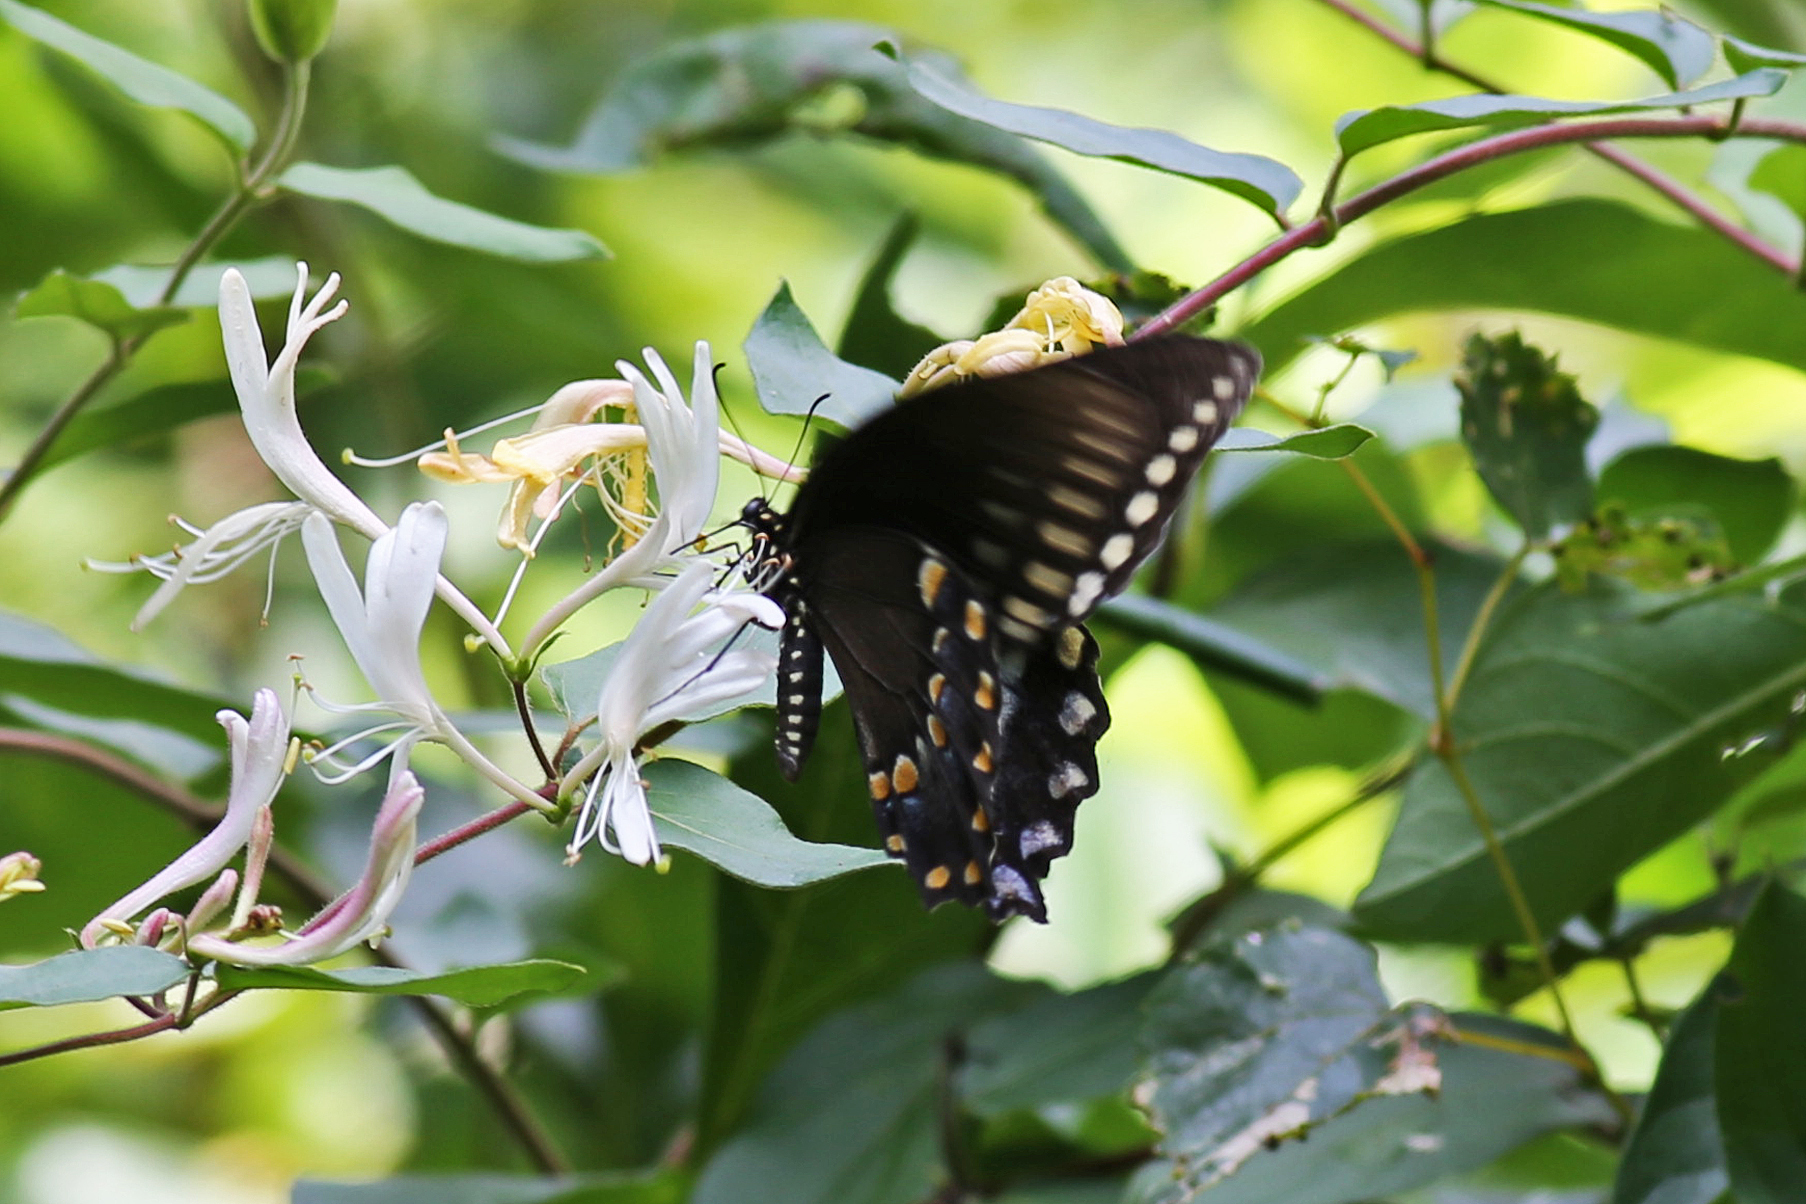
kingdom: Animalia
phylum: Arthropoda
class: Insecta
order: Lepidoptera
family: Papilionidae
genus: Papilio
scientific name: Papilio troilus
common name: Spicebush swallowtail
